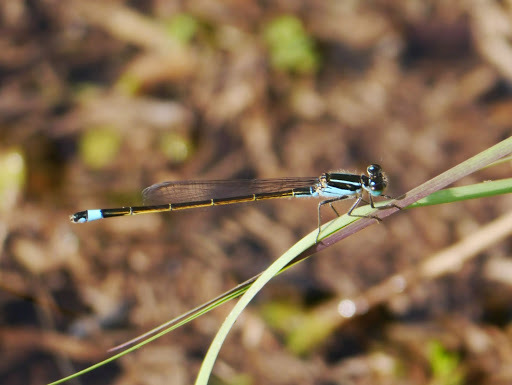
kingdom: Animalia
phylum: Arthropoda
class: Insecta
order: Odonata
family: Coenagrionidae
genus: Ischnura
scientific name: Ischnura ramburii
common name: Rambur's forktail
